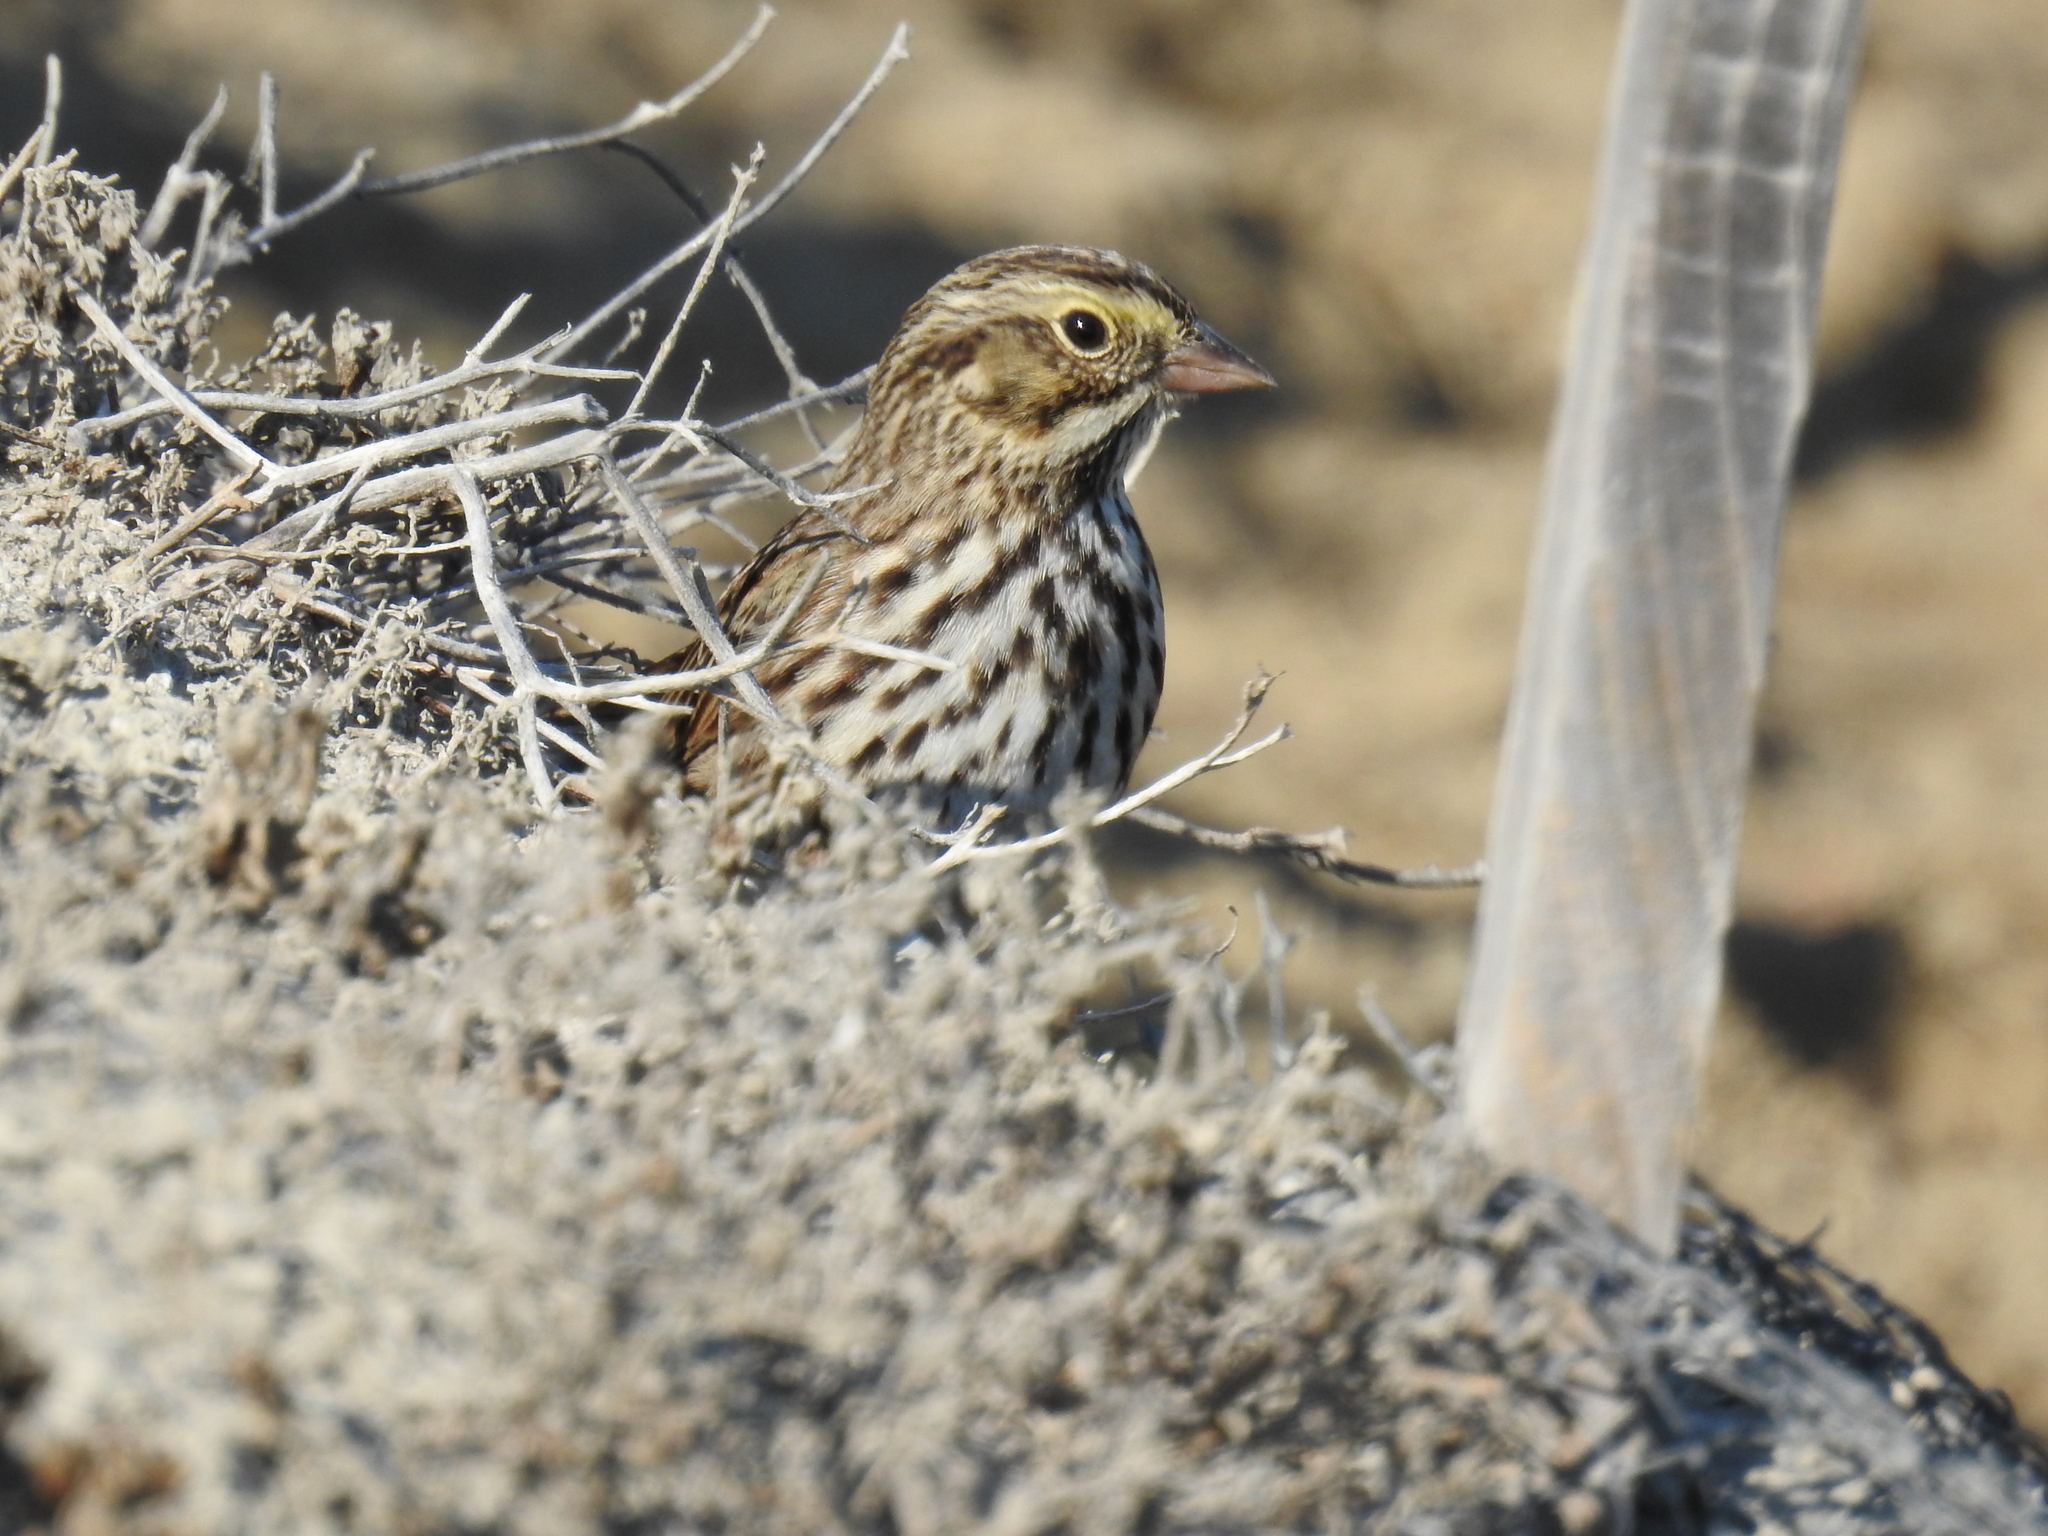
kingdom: Animalia
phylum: Chordata
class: Aves
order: Passeriformes
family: Passerellidae
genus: Passerculus
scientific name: Passerculus sandwichensis
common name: Savannah sparrow
